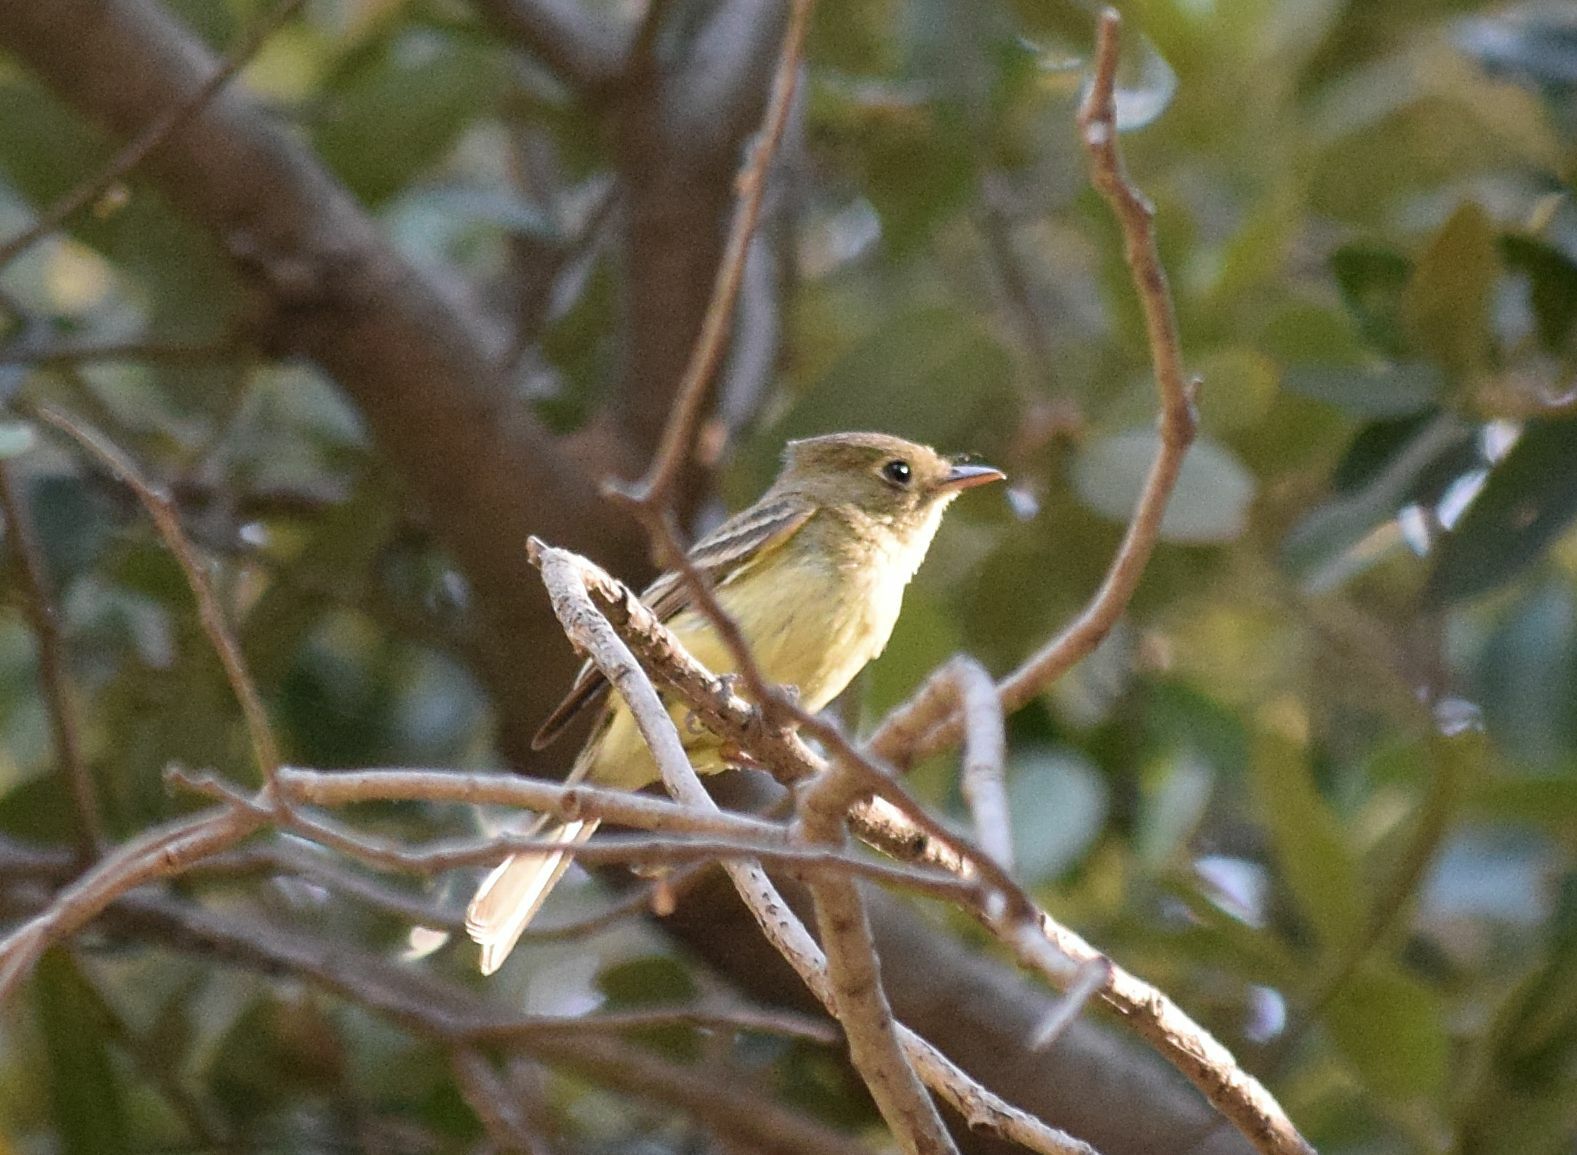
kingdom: Animalia
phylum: Chordata
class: Aves
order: Passeriformes
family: Tyrannidae
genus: Empidonax
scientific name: Empidonax difficilis
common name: Pacific-slope flycatcher
